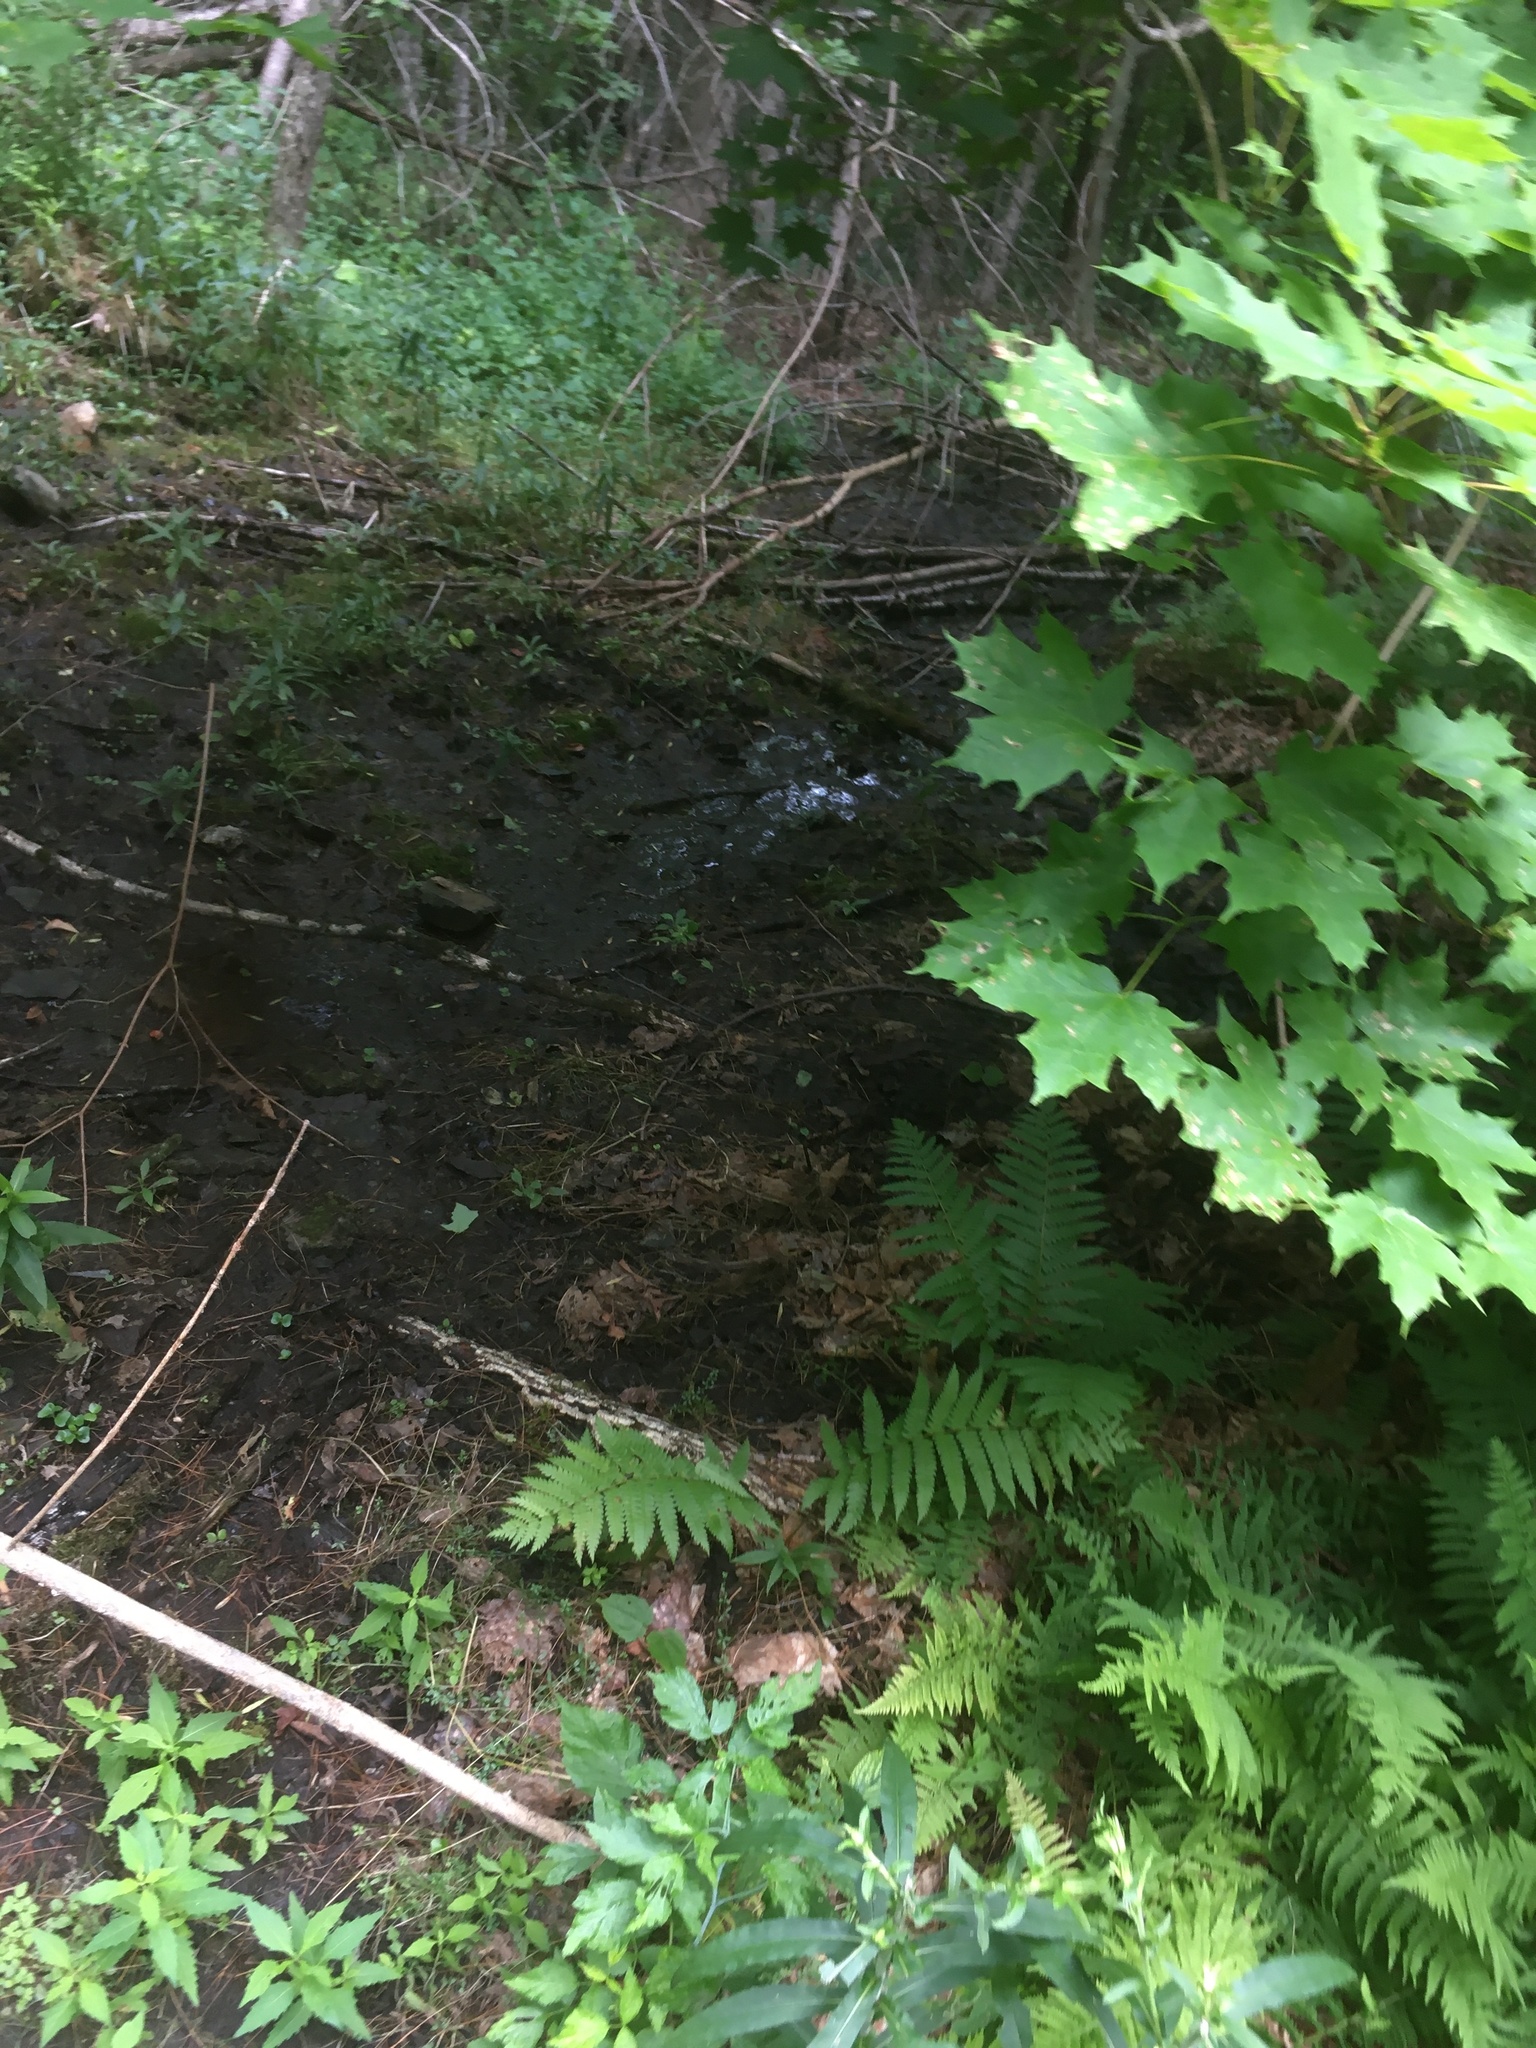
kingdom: Plantae
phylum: Tracheophyta
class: Magnoliopsida
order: Sapindales
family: Sapindaceae
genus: Acer
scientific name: Acer saccharum
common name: Sugar maple
